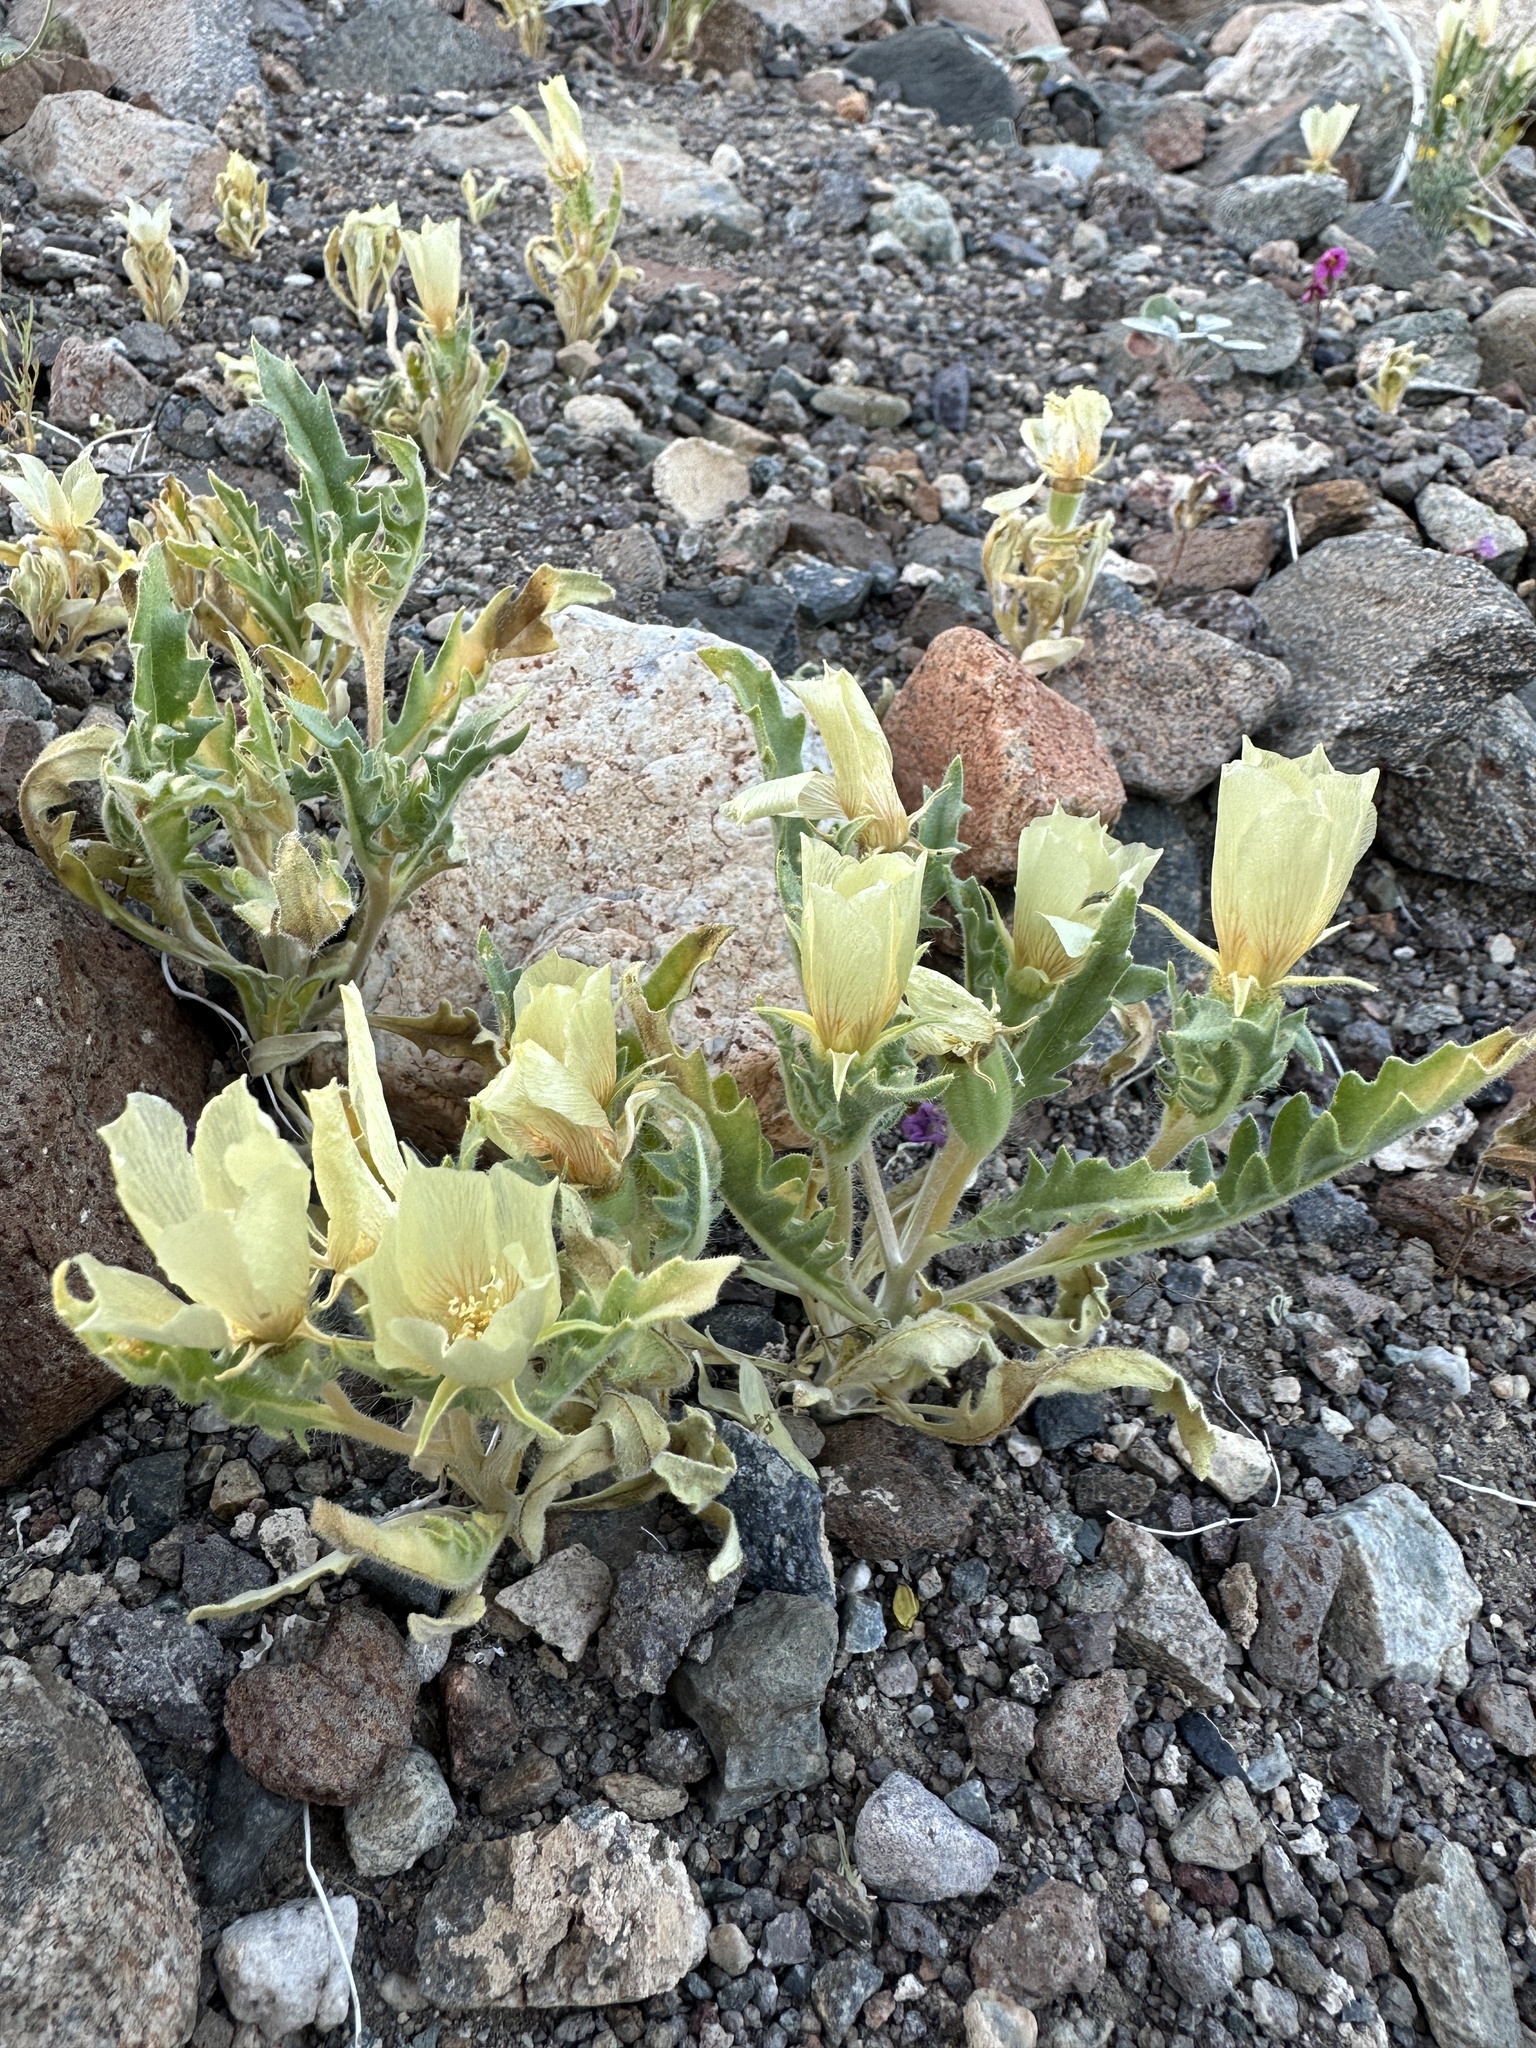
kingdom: Plantae
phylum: Tracheophyta
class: Magnoliopsida
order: Cornales
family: Loasaceae
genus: Mentzelia
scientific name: Mentzelia tridentata
